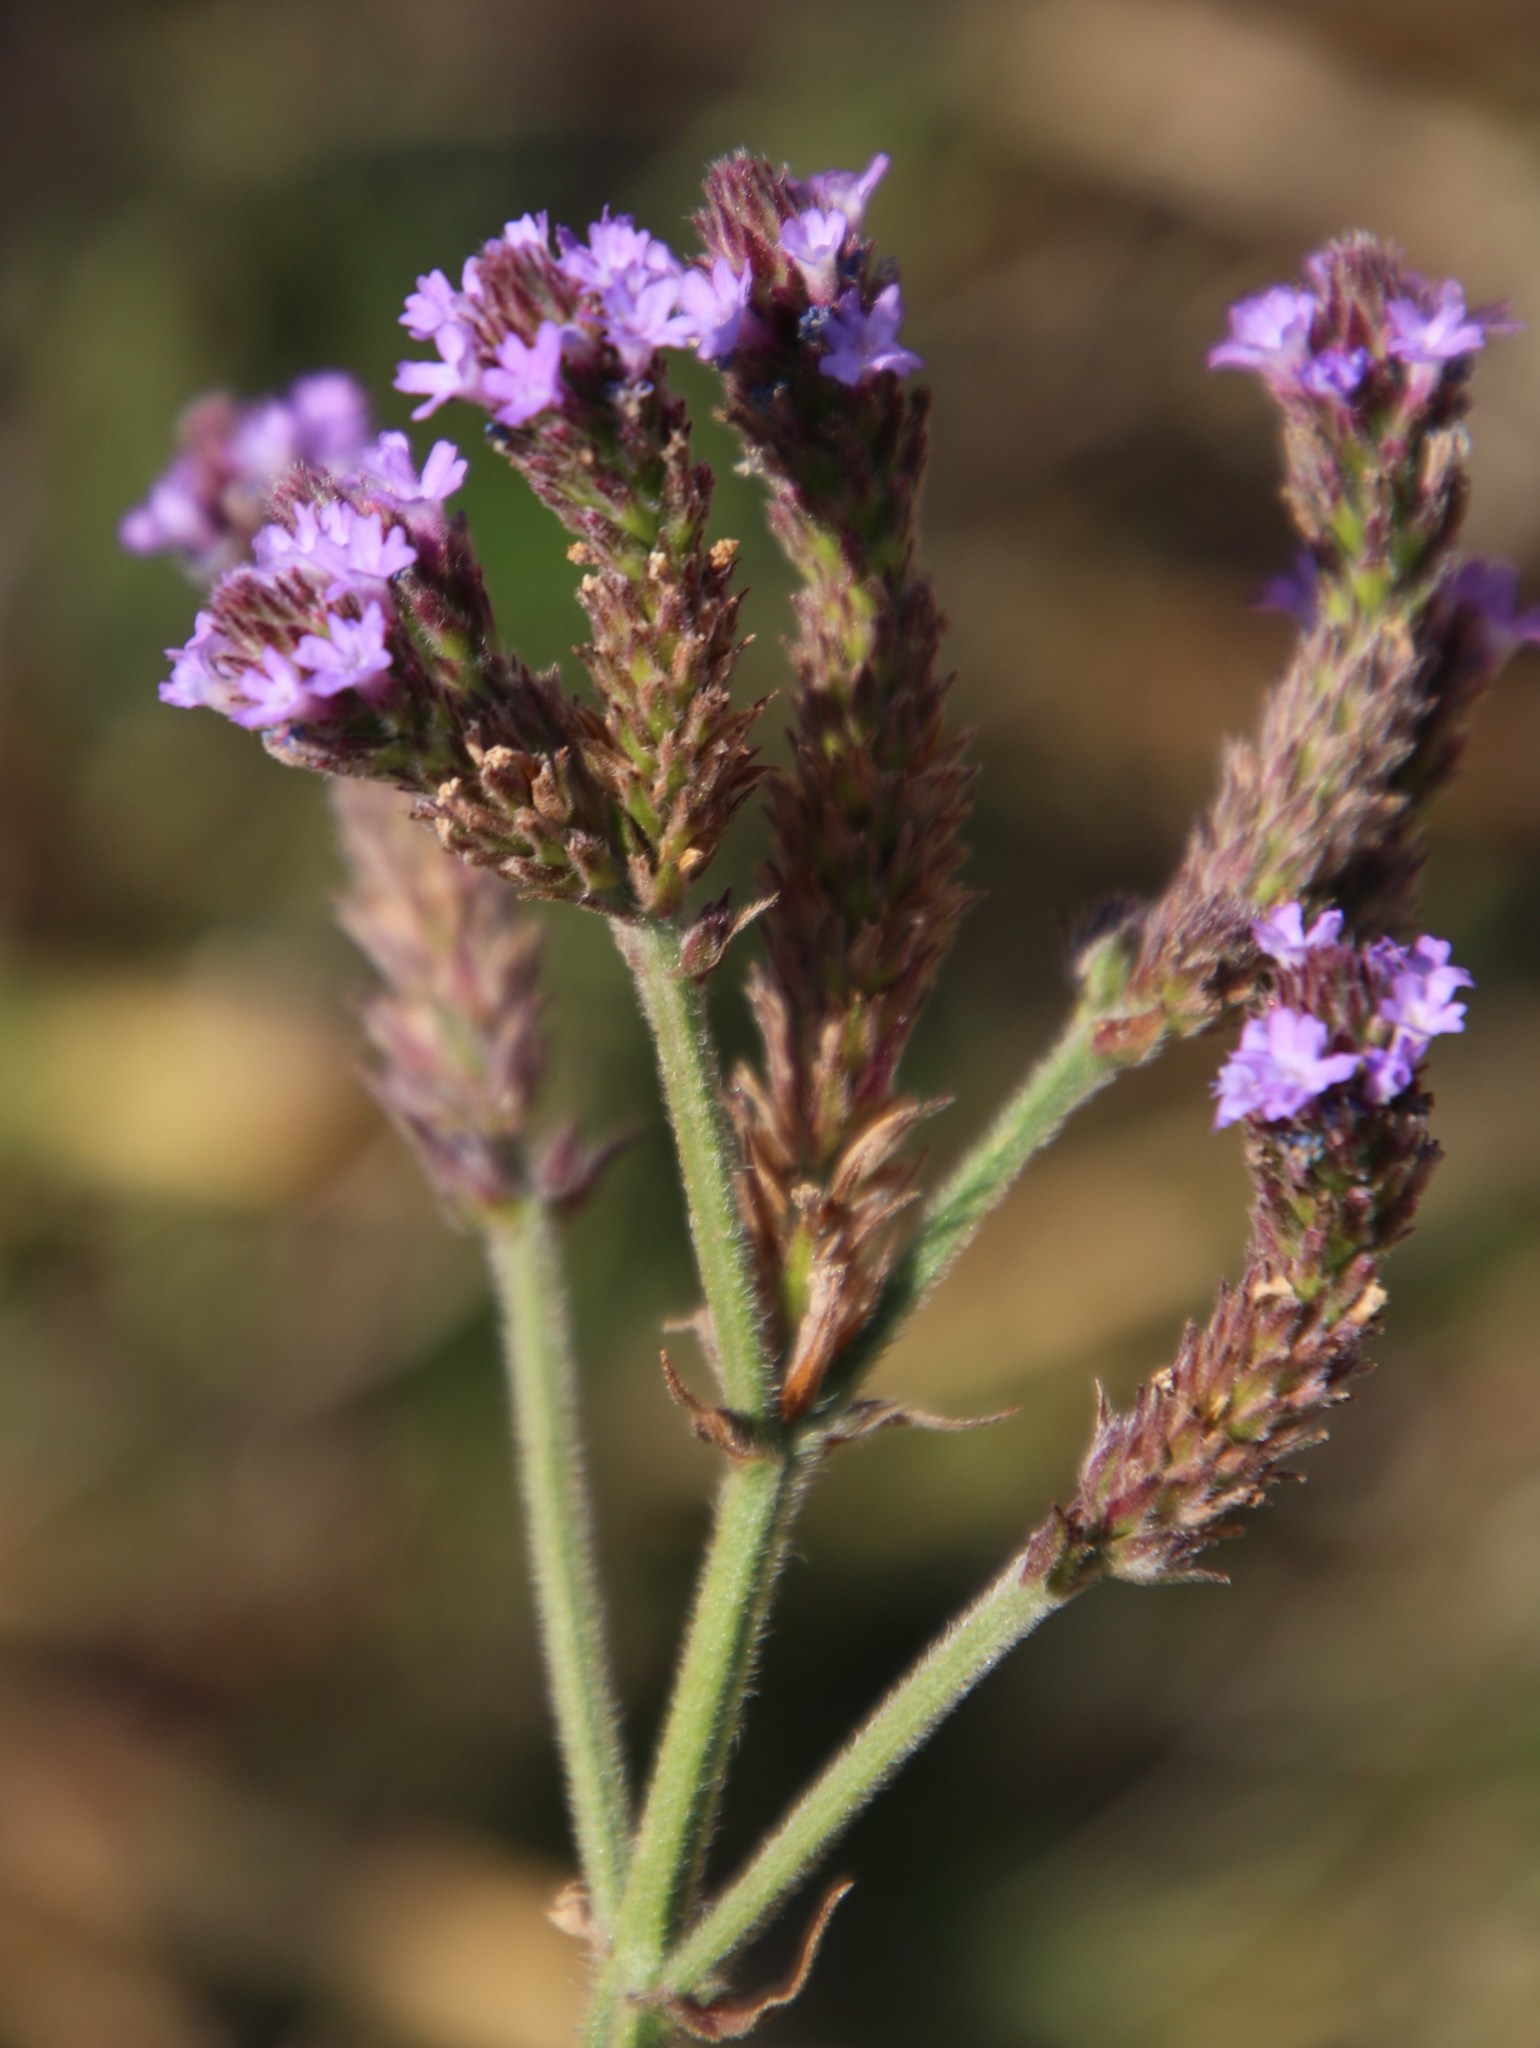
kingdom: Plantae
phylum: Tracheophyta
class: Magnoliopsida
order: Lamiales
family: Verbenaceae
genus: Verbena
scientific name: Verbena bonariensis
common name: Purpletop vervain
